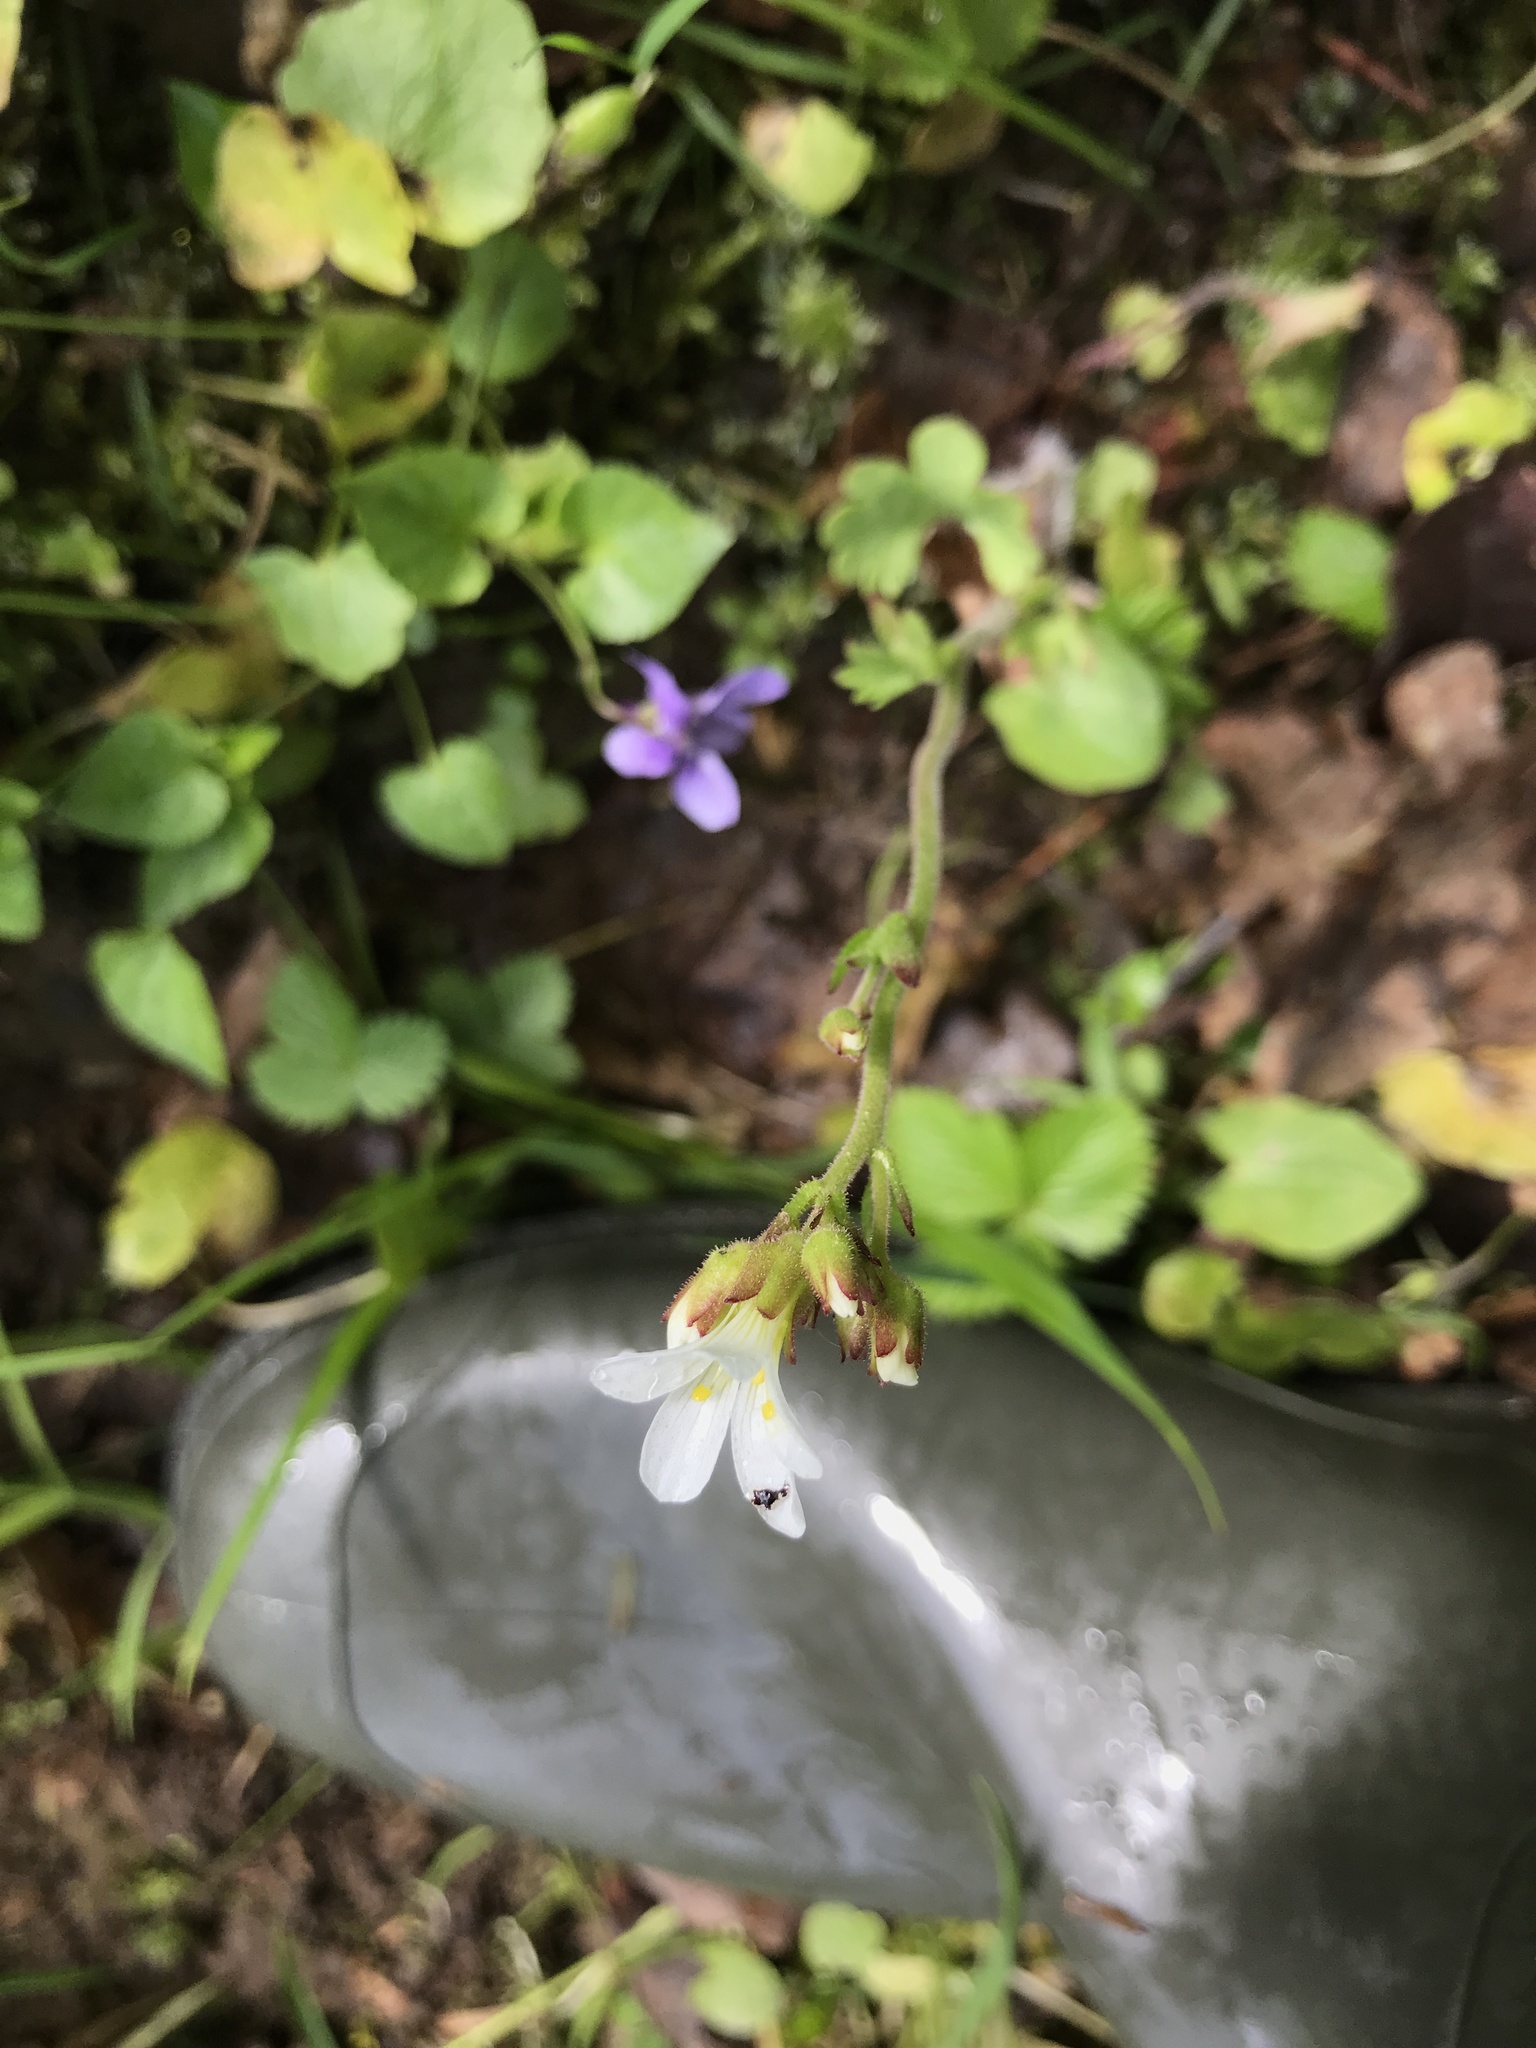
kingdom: Plantae
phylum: Tracheophyta
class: Magnoliopsida
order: Saxifragales
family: Saxifragaceae
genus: Saxifraga
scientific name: Saxifraga granulata
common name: Meadow saxifrage
